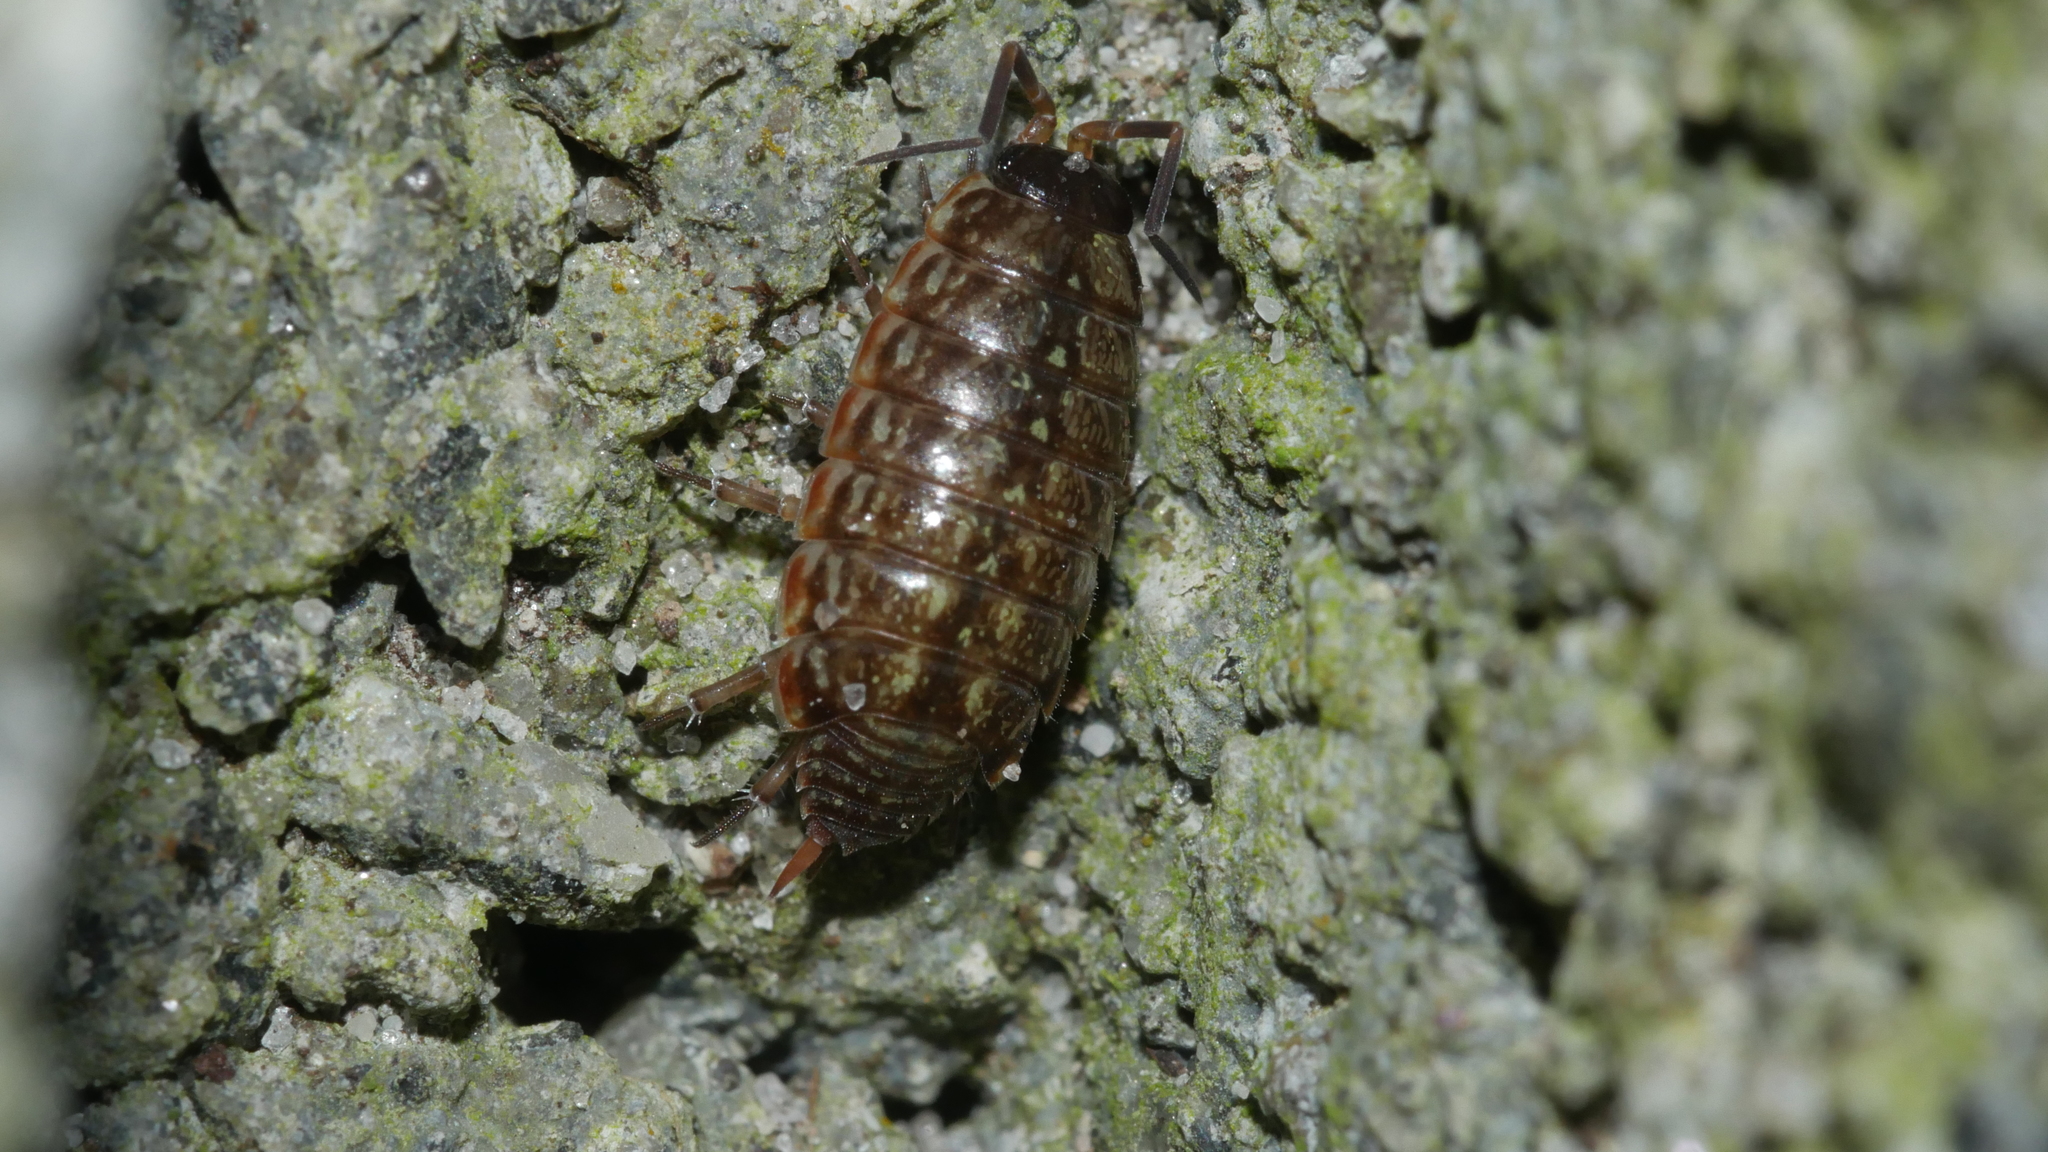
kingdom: Animalia
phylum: Arthropoda
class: Malacostraca
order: Isopoda
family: Philosciidae
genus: Philoscia
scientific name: Philoscia muscorum
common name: Common striped woodlouse
